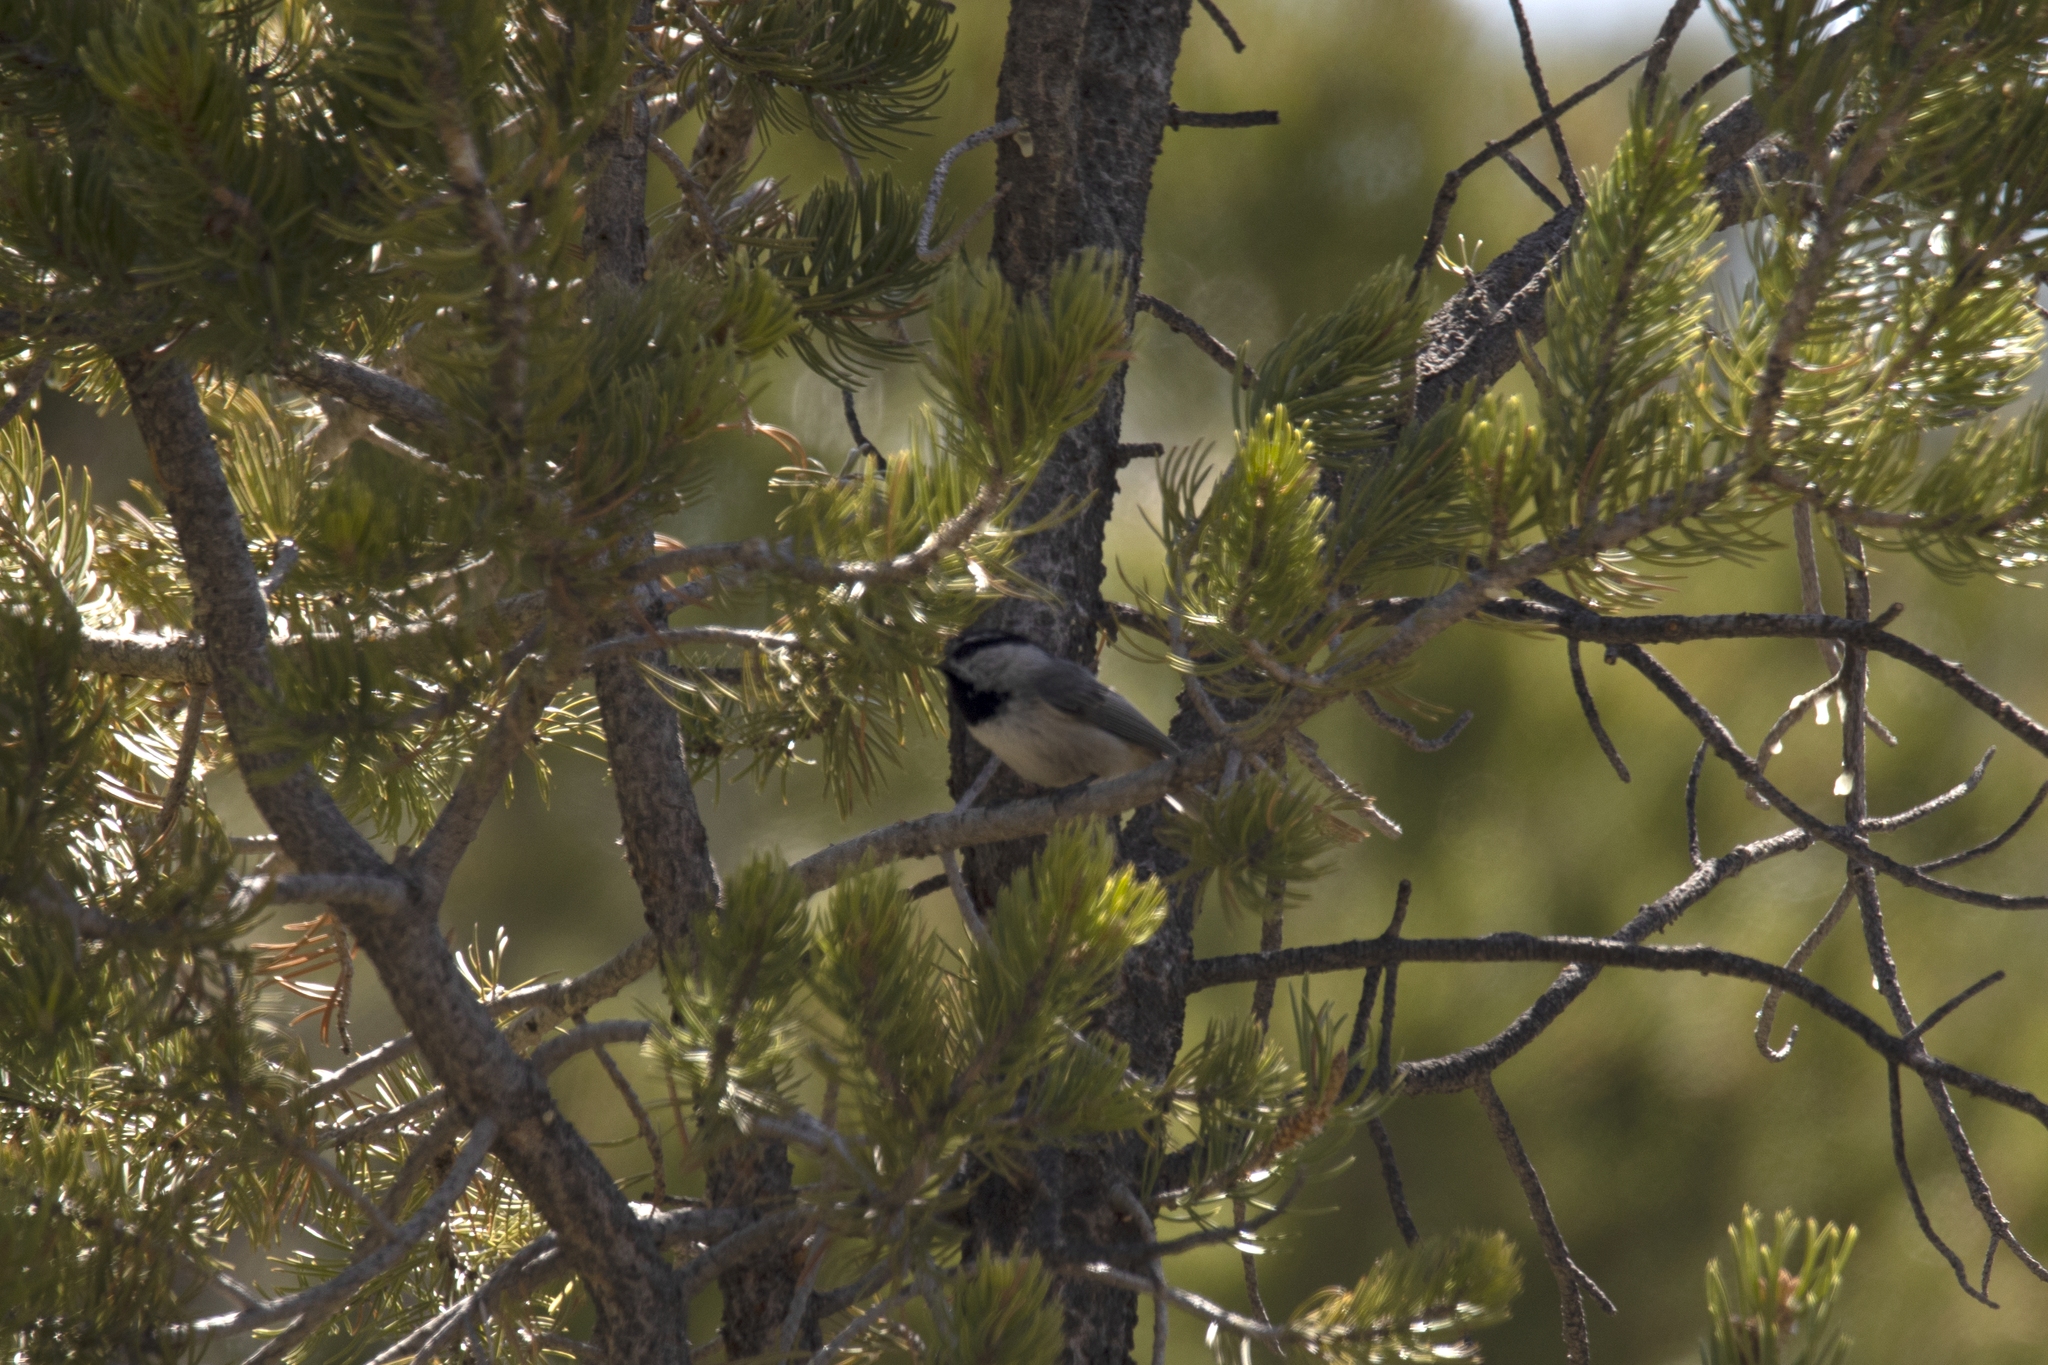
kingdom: Animalia
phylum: Chordata
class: Aves
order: Passeriformes
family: Paridae
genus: Poecile
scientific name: Poecile gambeli
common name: Mountain chickadee
